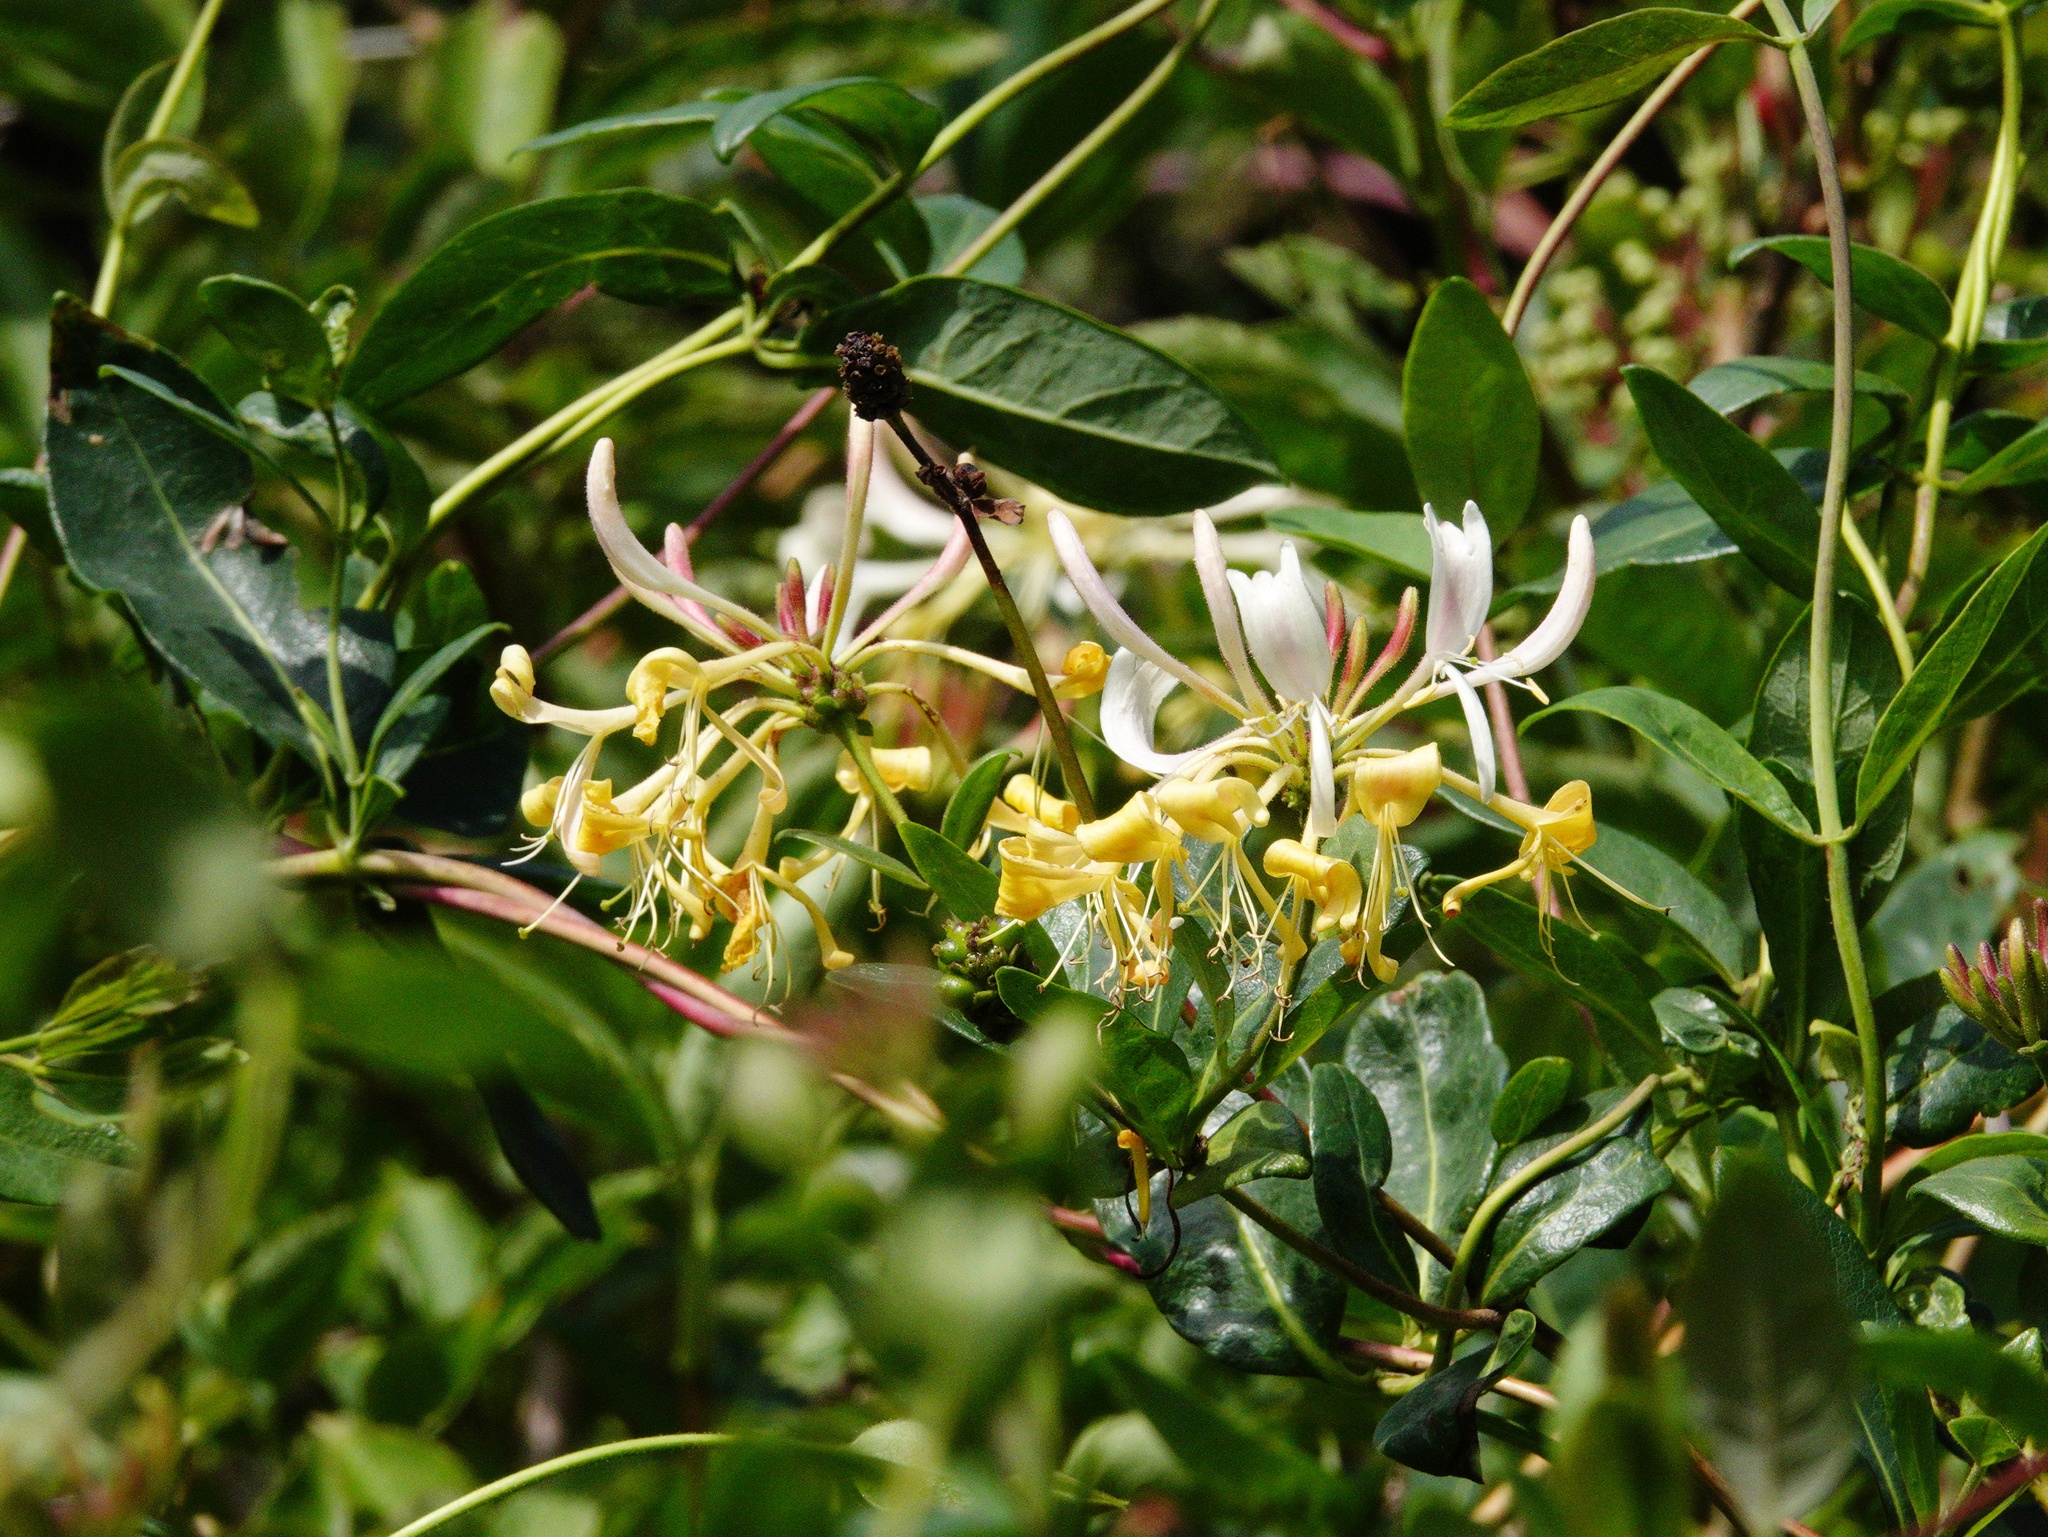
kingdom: Plantae
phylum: Tracheophyta
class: Magnoliopsida
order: Dipsacales
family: Caprifoliaceae
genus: Lonicera
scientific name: Lonicera periclymenum
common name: European honeysuckle
